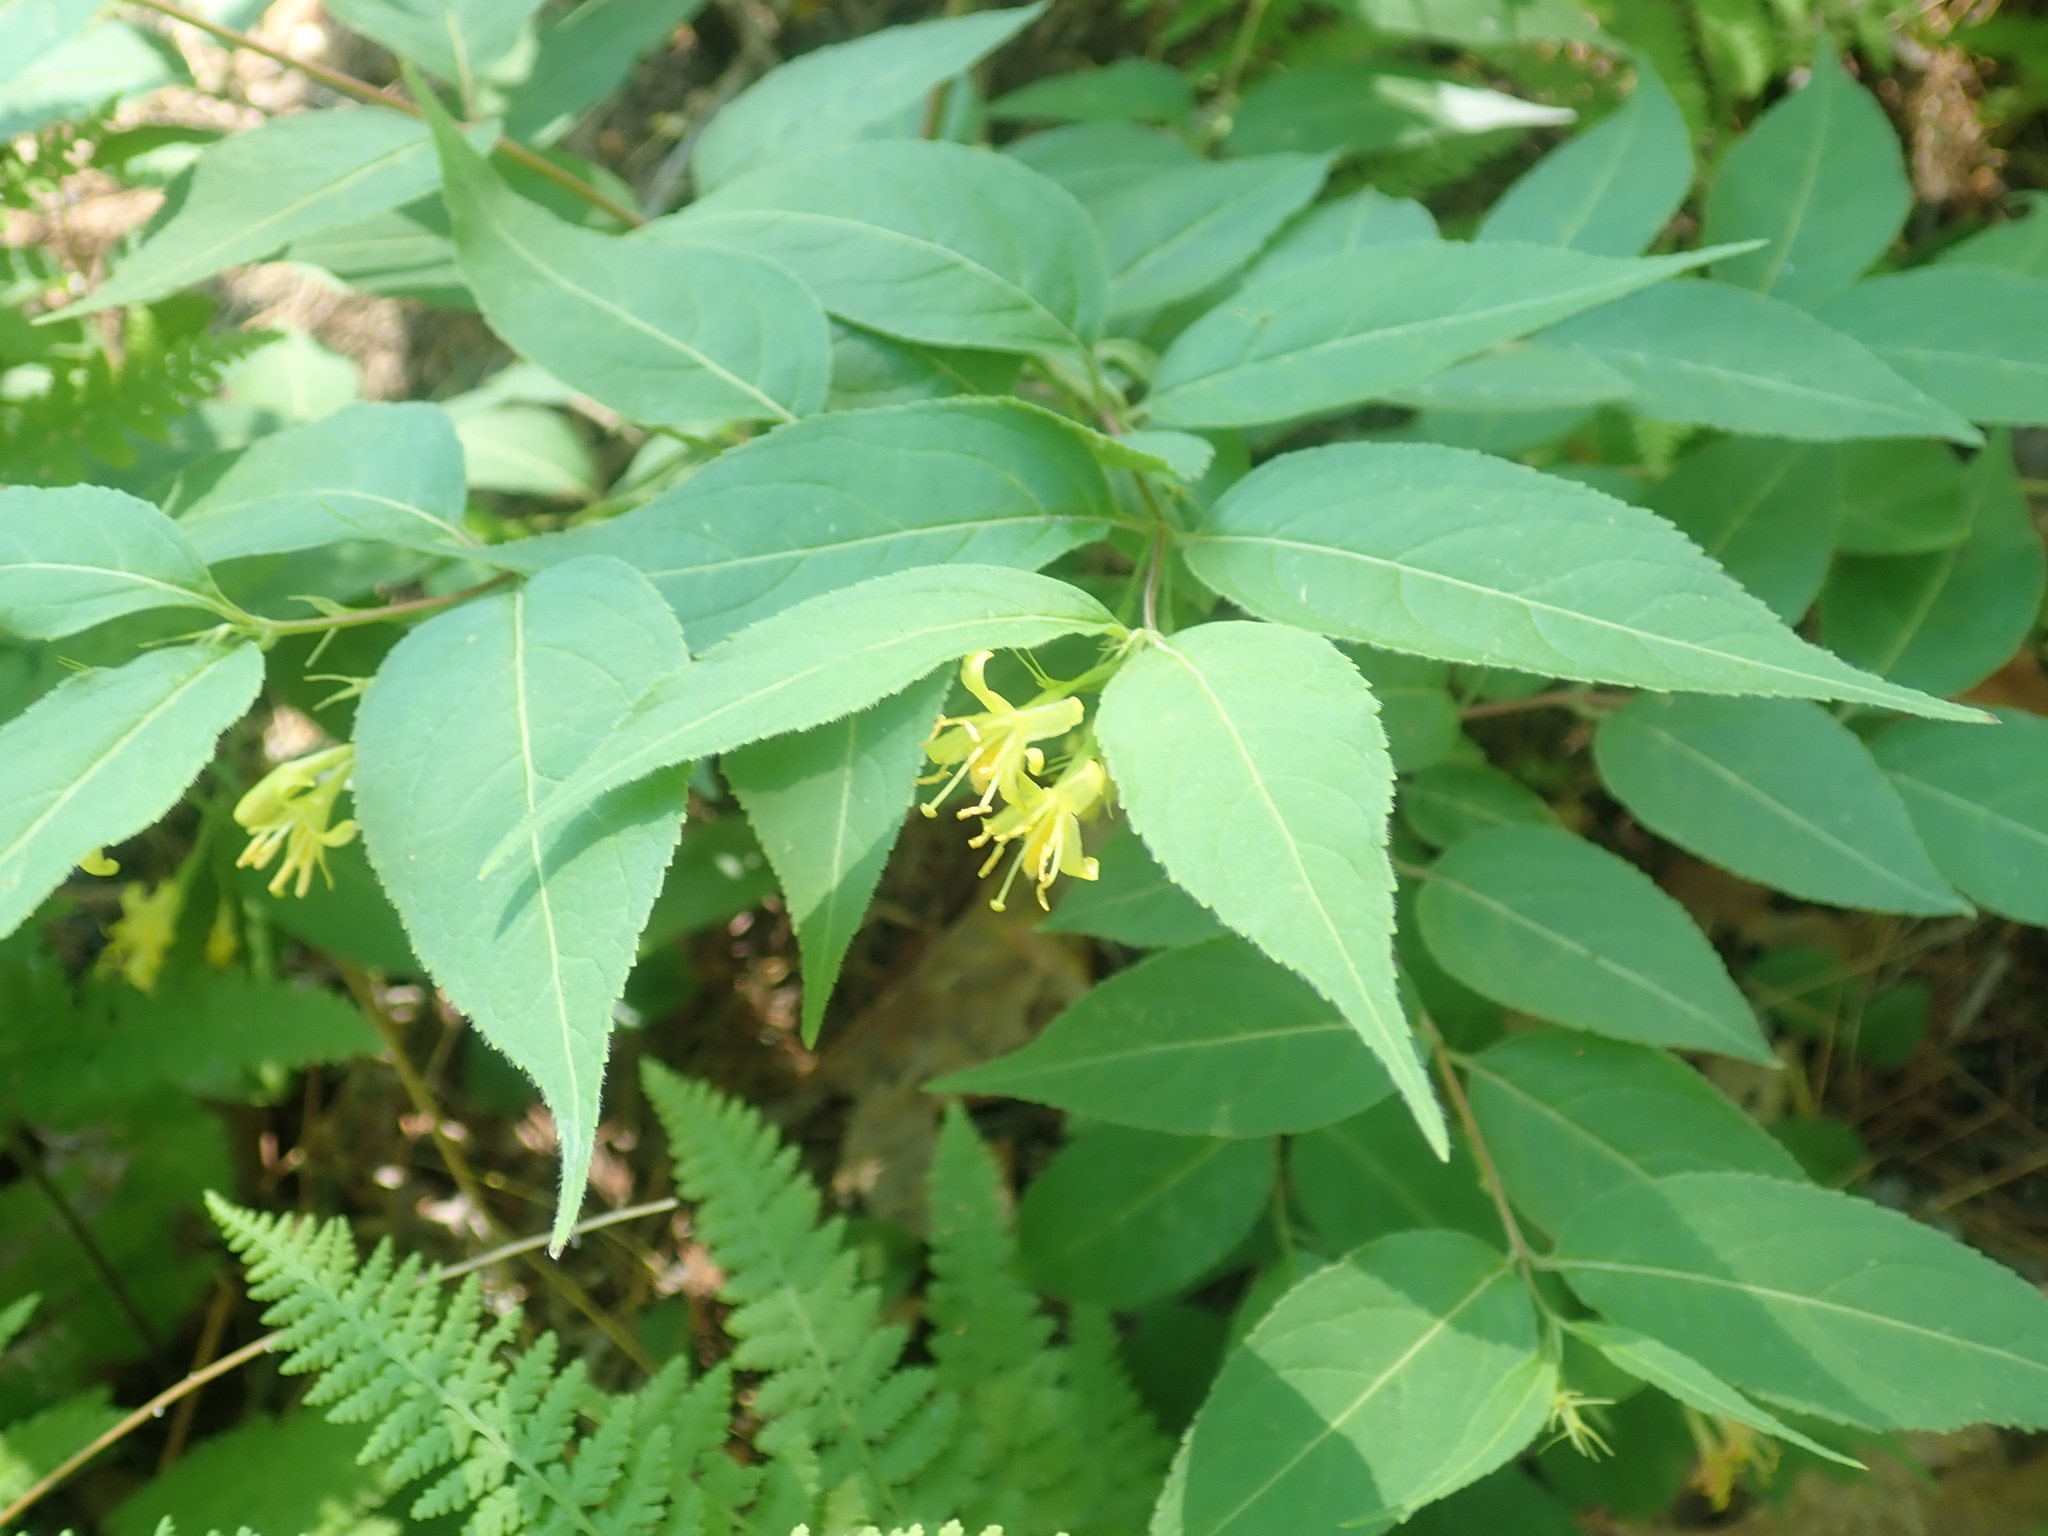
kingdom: Plantae
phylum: Tracheophyta
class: Magnoliopsida
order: Dipsacales
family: Caprifoliaceae
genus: Diervilla
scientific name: Diervilla lonicera
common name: Bush-honeysuckle
